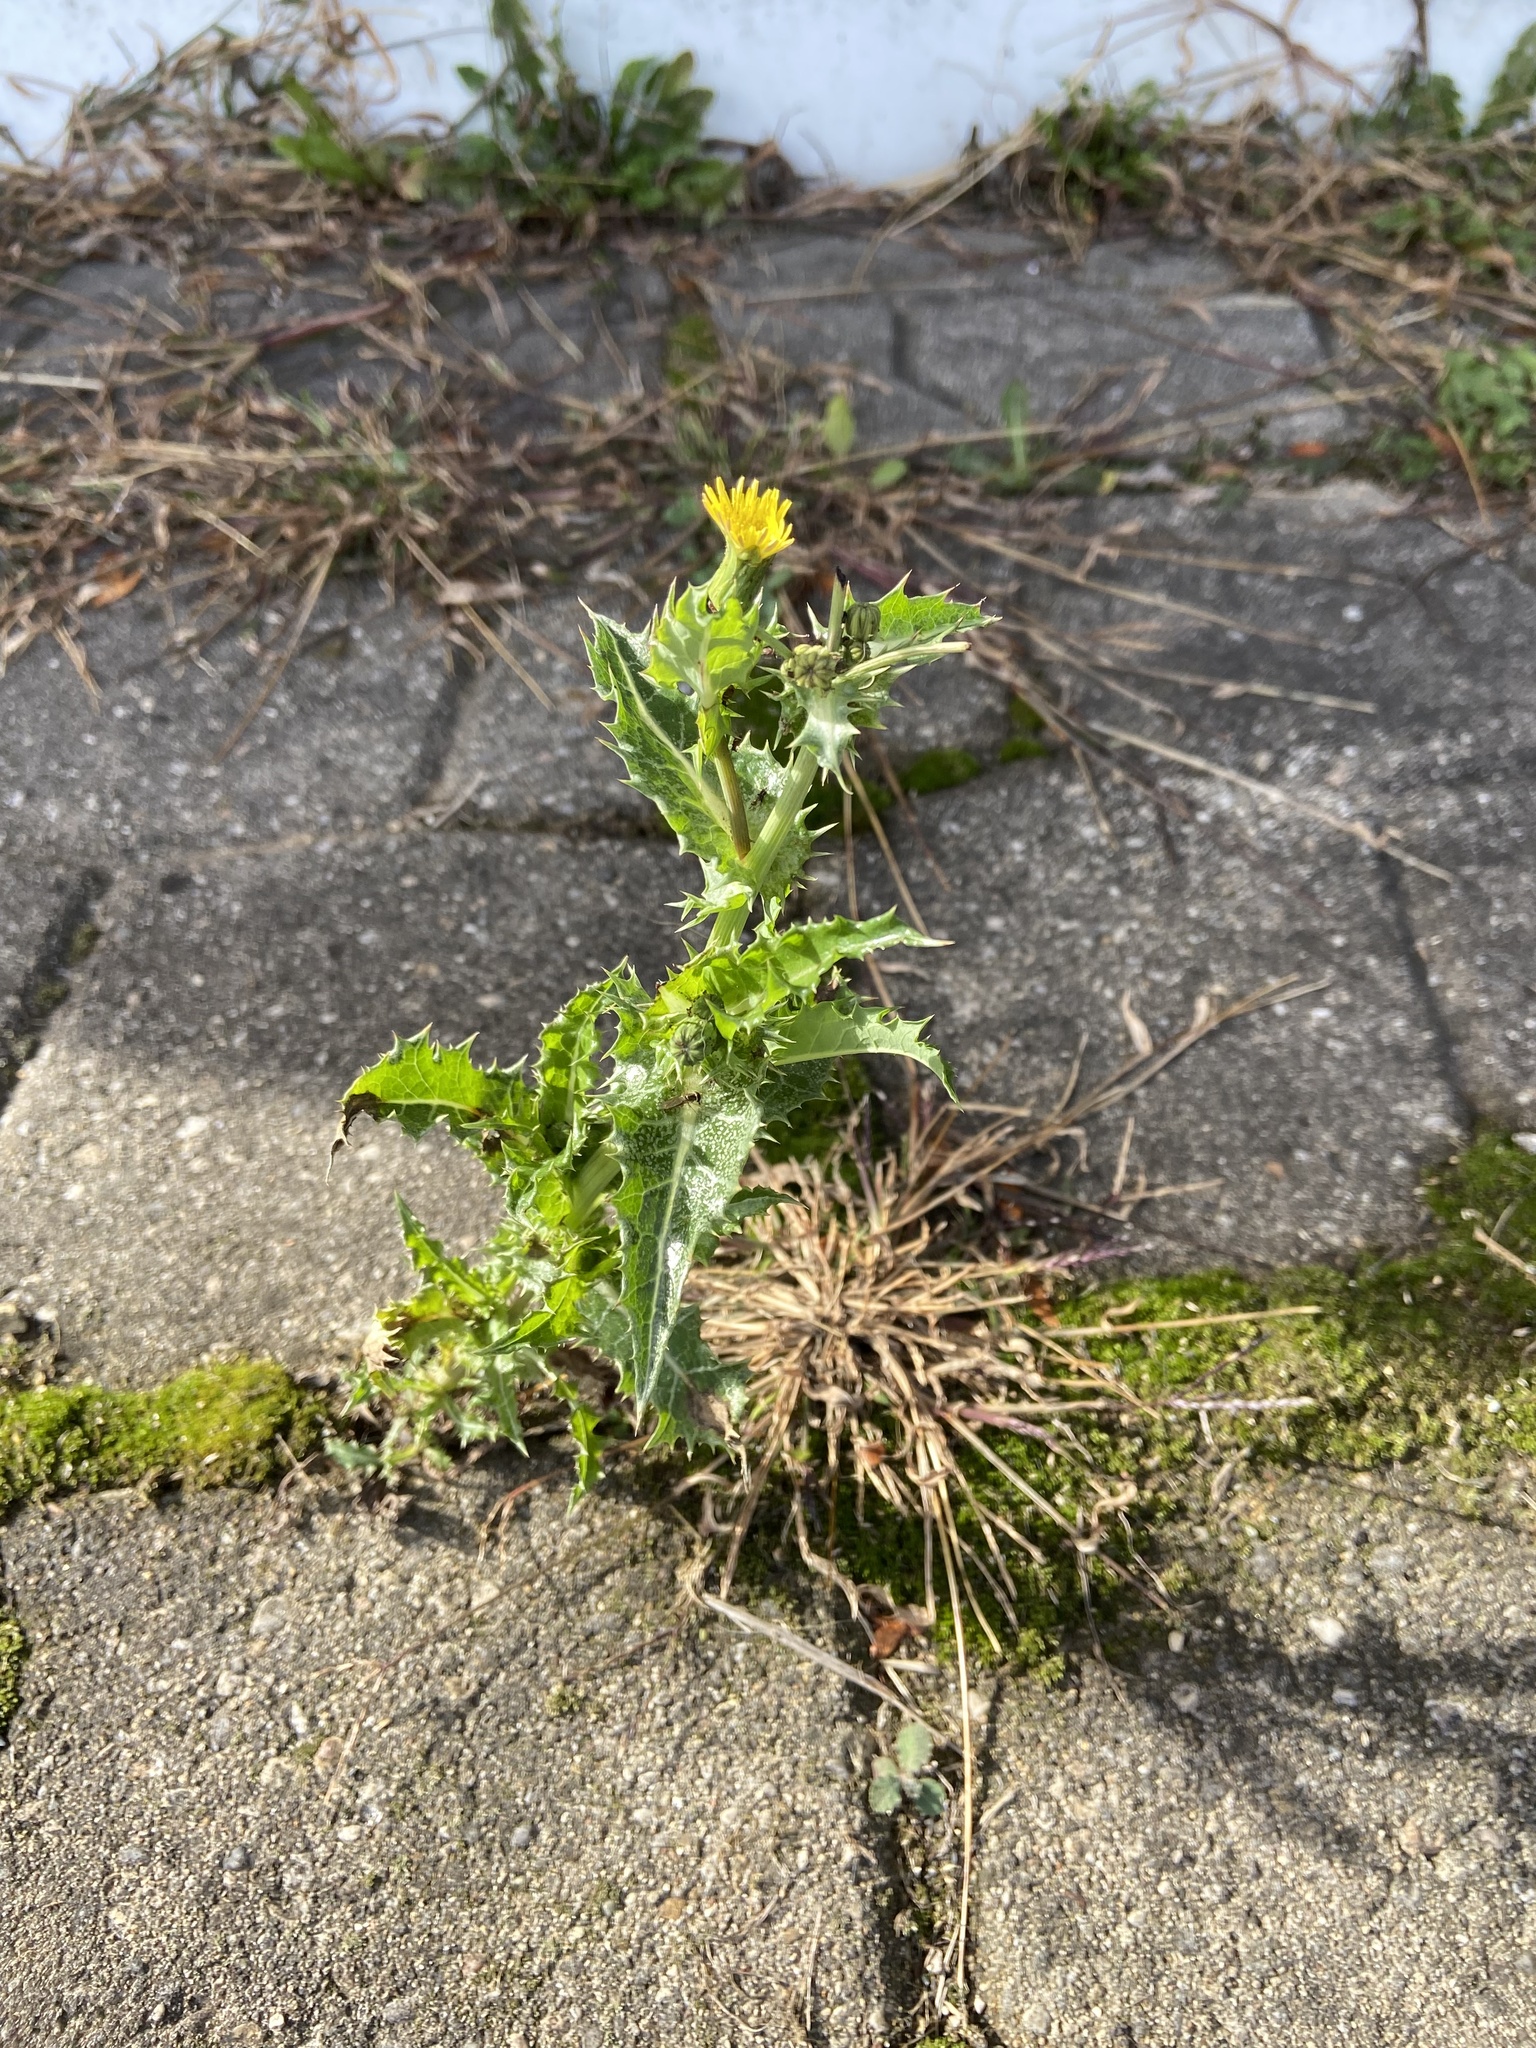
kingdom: Plantae
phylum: Tracheophyta
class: Magnoliopsida
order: Asterales
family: Asteraceae
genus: Sonchus
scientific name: Sonchus asper
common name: Prickly sow-thistle
